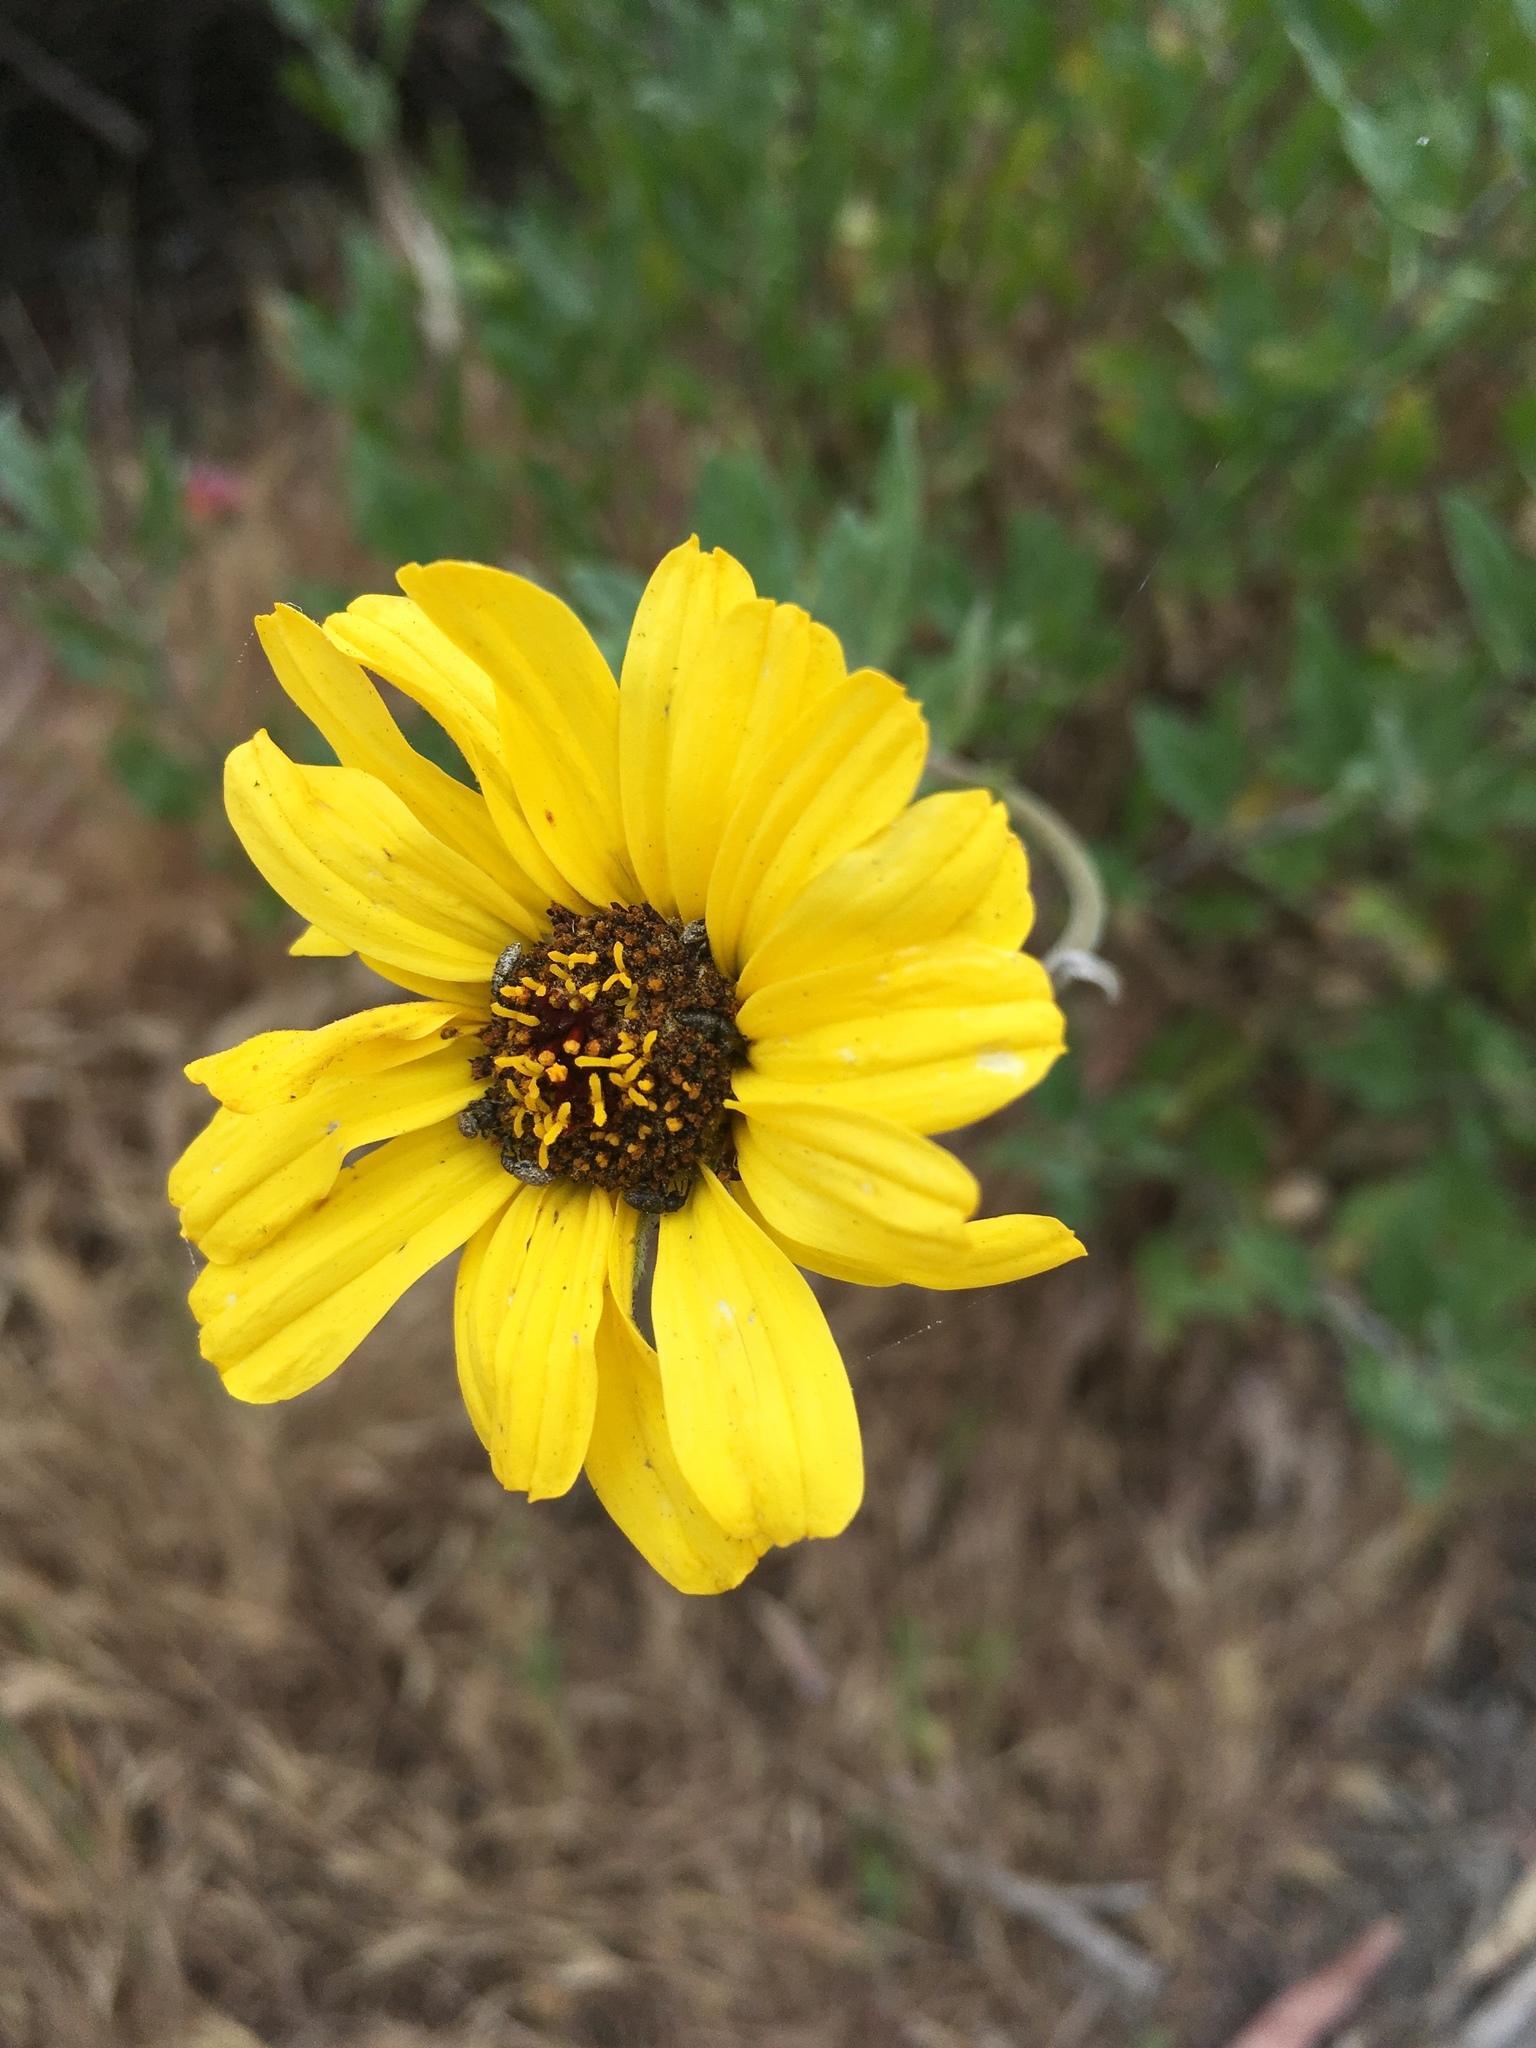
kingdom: Plantae
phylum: Tracheophyta
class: Magnoliopsida
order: Asterales
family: Asteraceae
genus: Encelia
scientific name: Encelia californica
